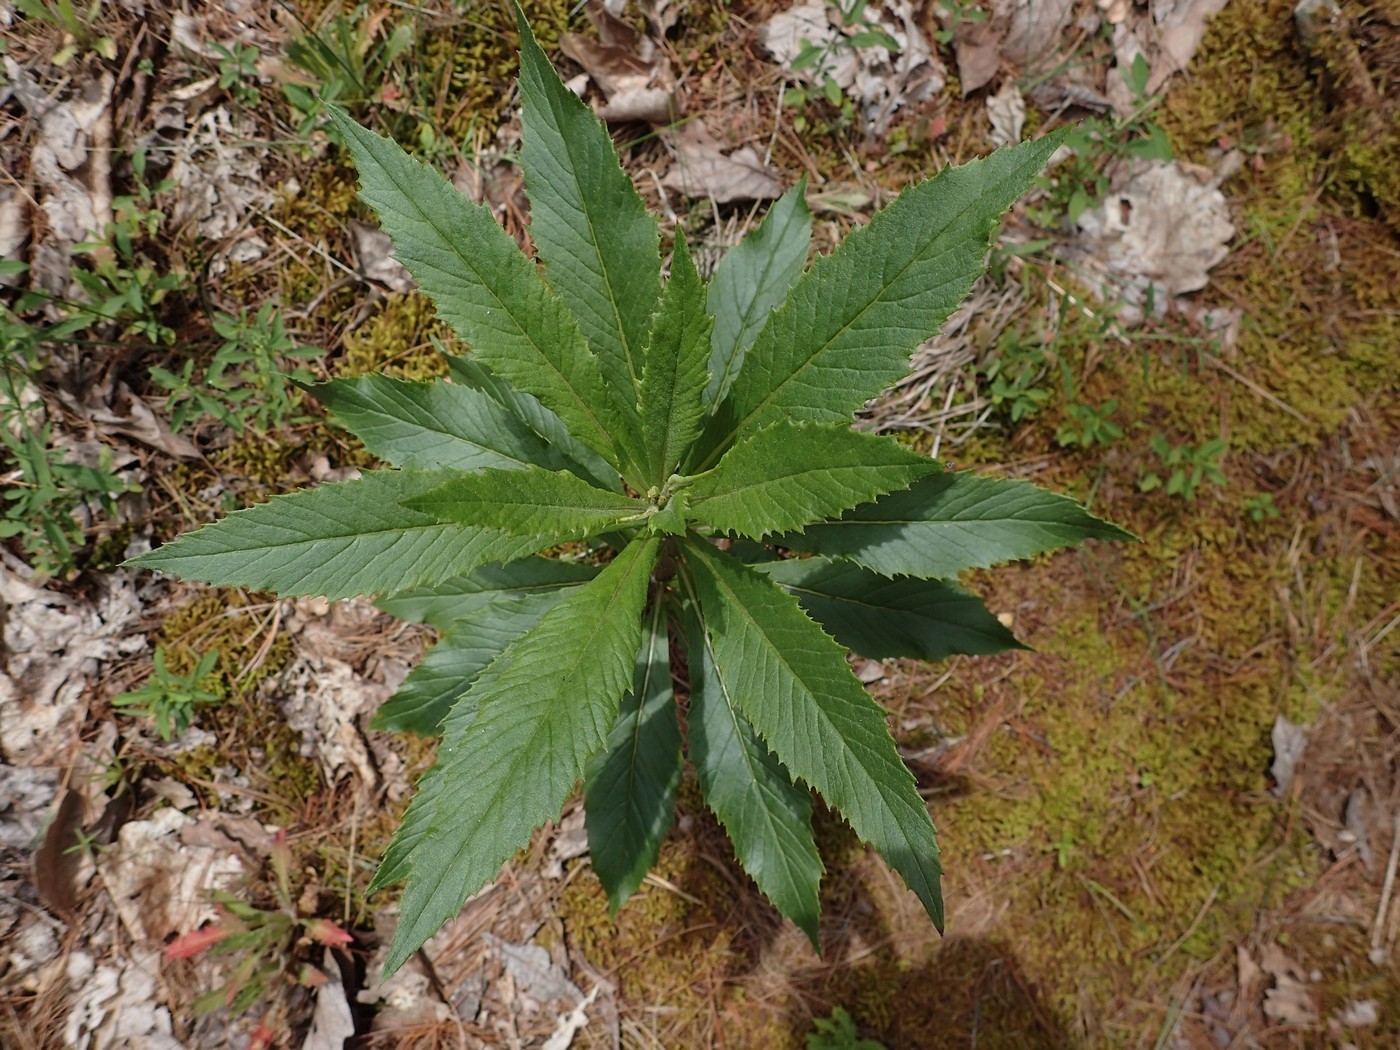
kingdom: Plantae
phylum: Tracheophyta
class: Magnoliopsida
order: Asterales
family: Asteraceae
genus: Erechtites
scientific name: Erechtites hieraciifolius
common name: American burnweed
